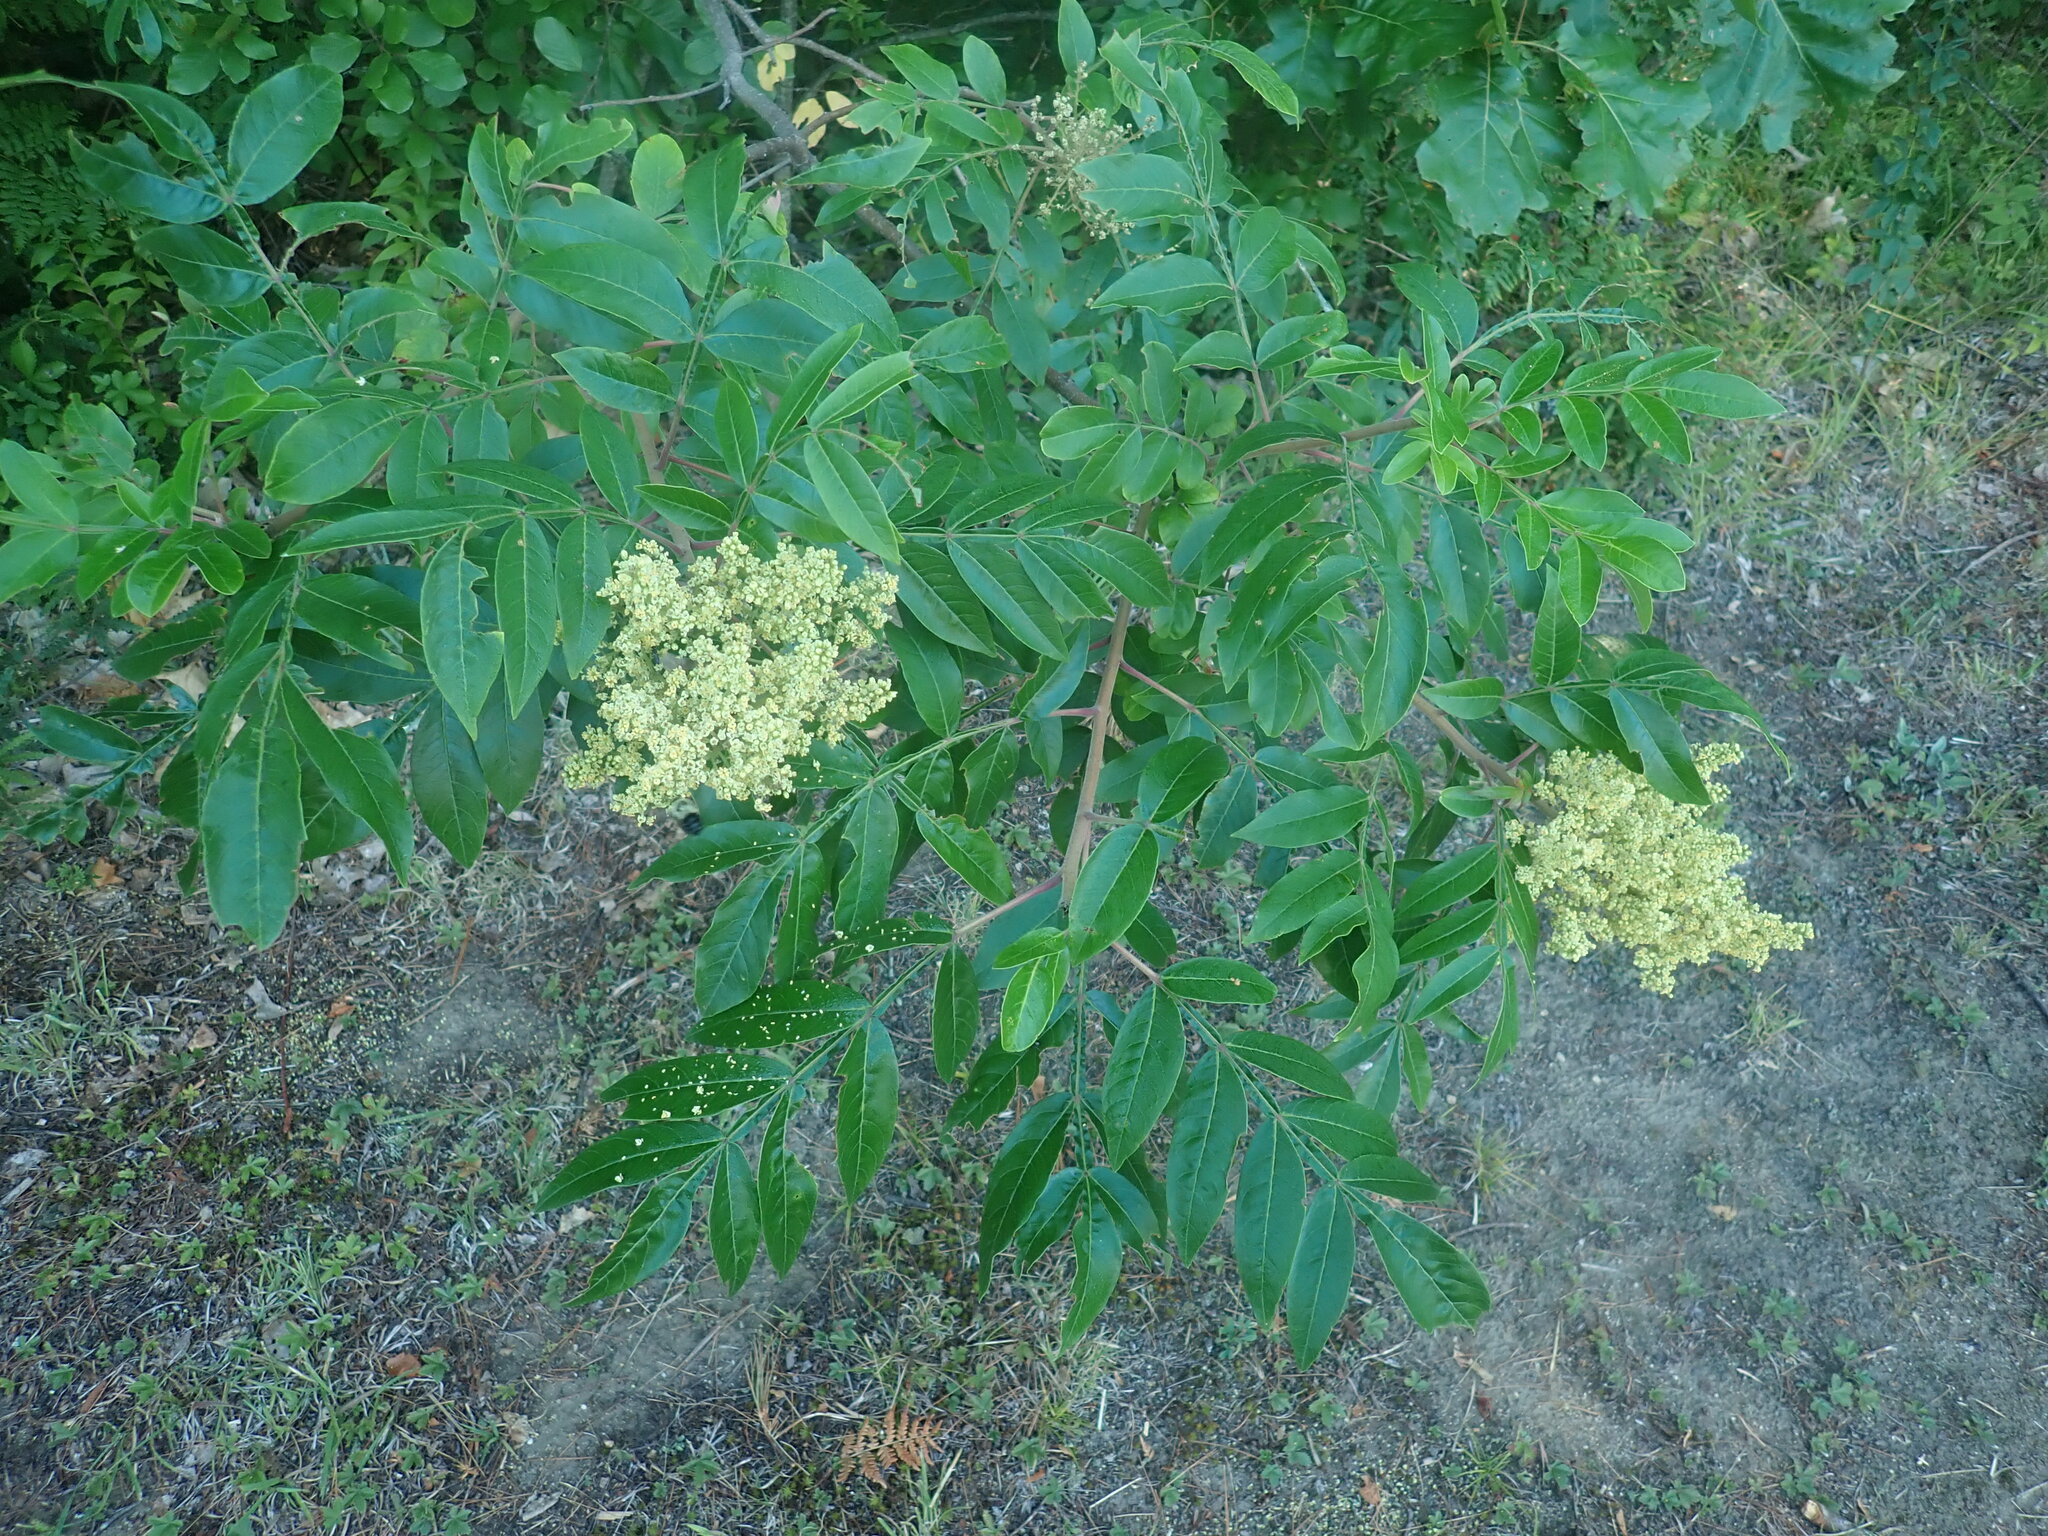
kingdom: Plantae
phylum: Tracheophyta
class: Magnoliopsida
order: Sapindales
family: Anacardiaceae
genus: Rhus
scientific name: Rhus copallina
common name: Shining sumac
